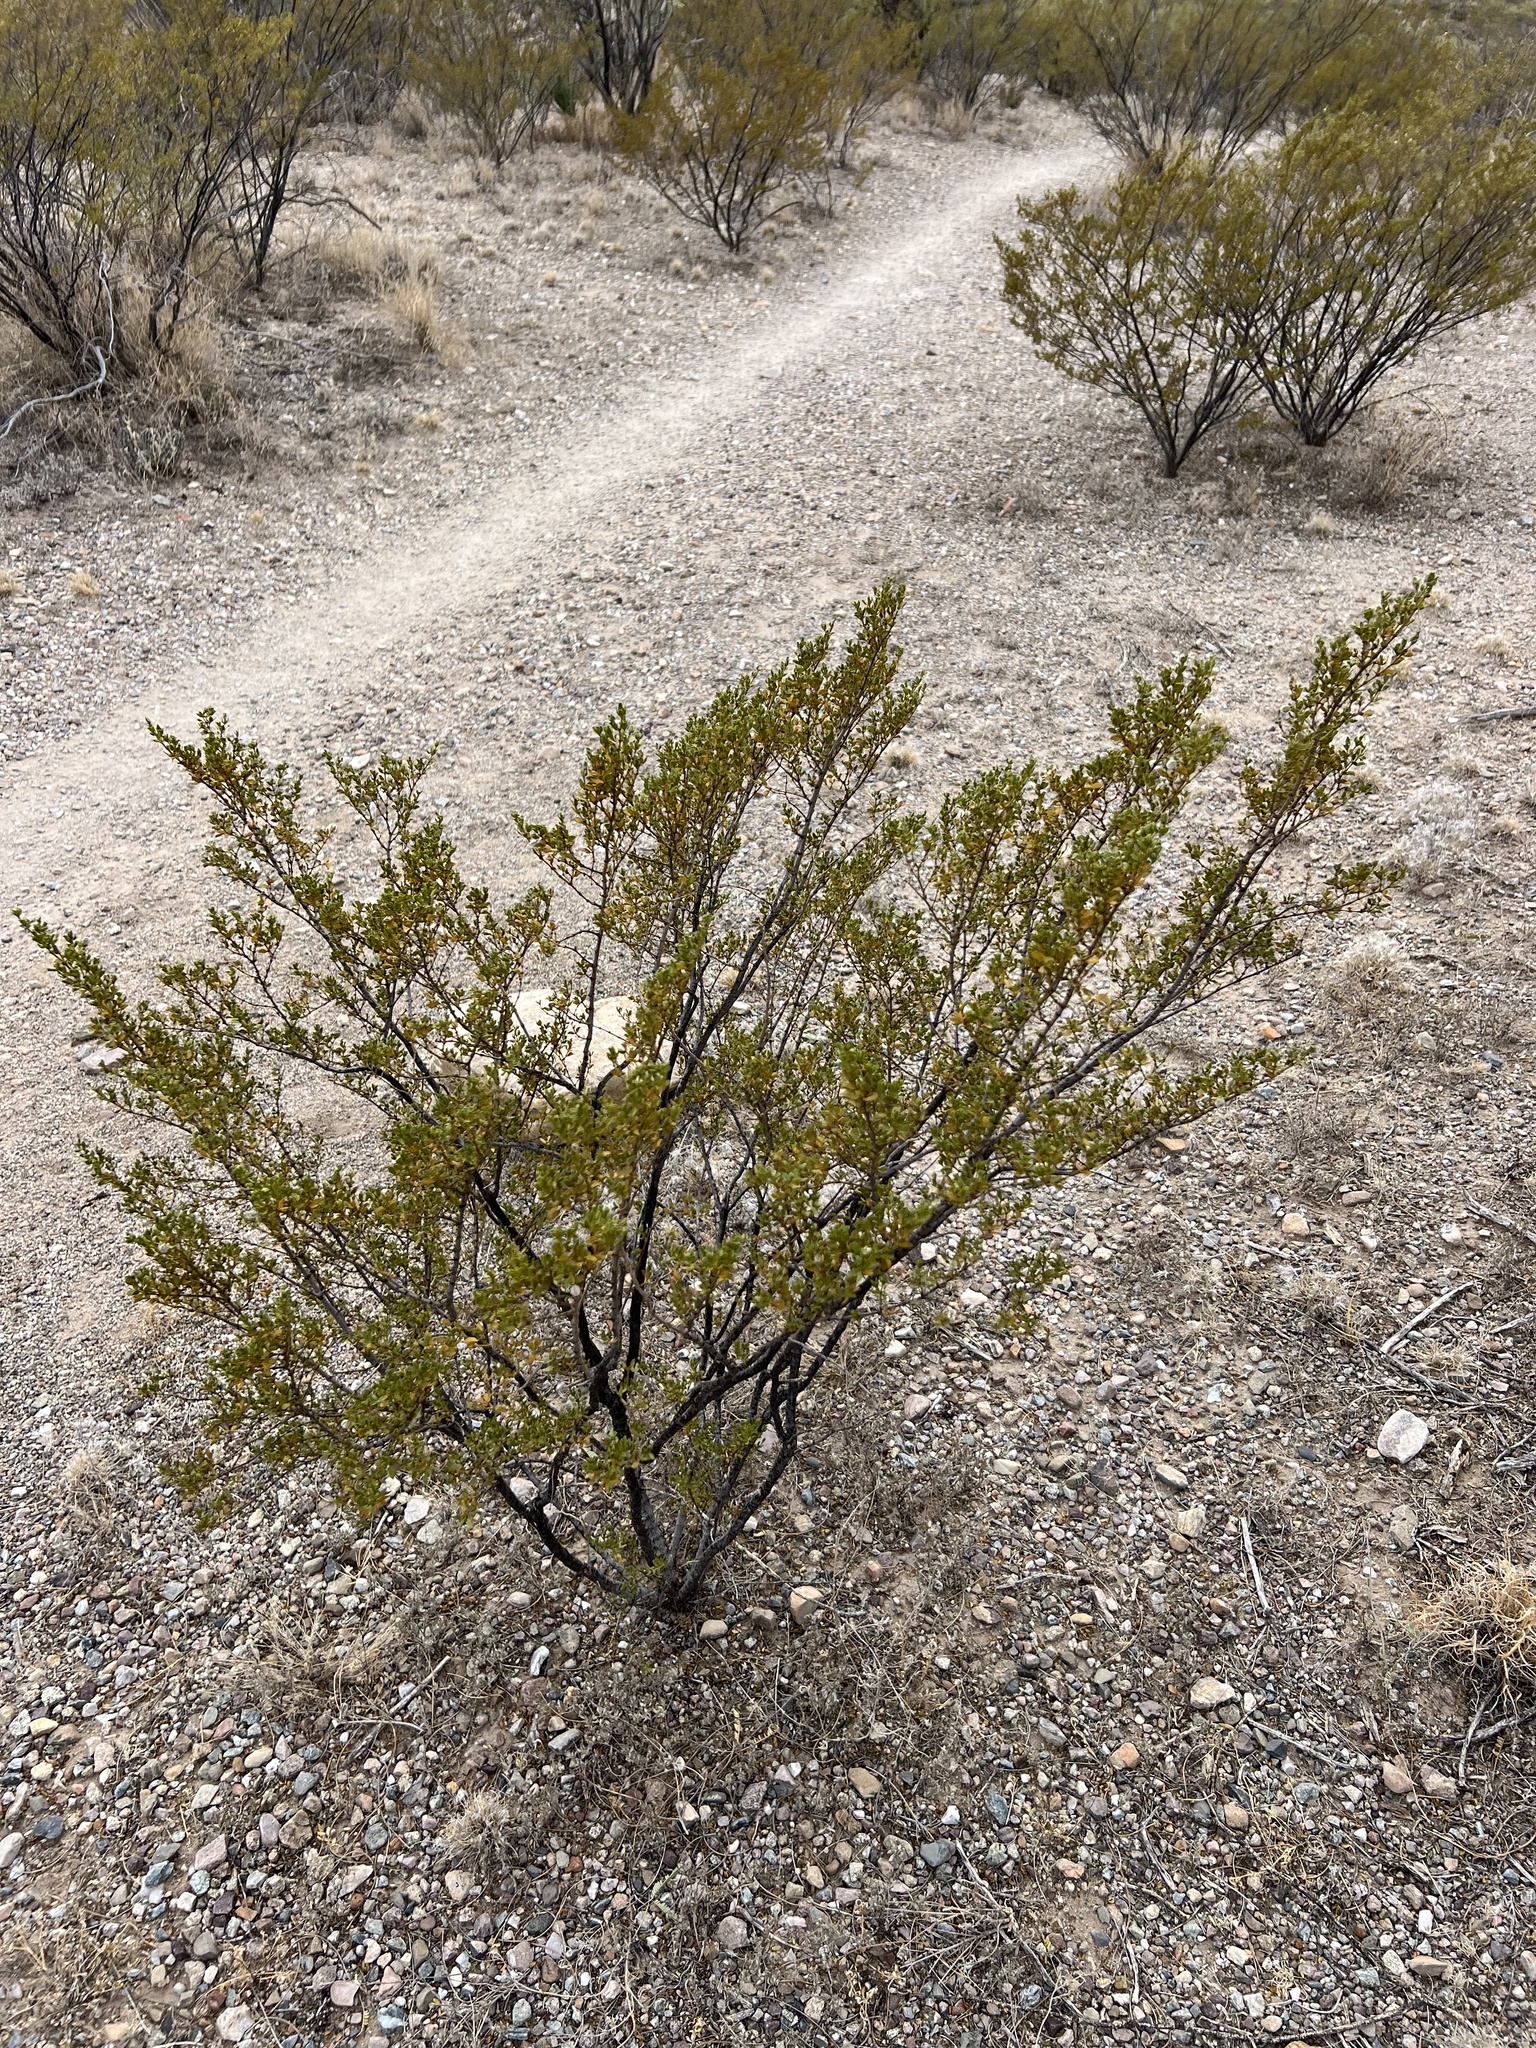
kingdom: Plantae
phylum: Tracheophyta
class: Magnoliopsida
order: Zygophyllales
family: Zygophyllaceae
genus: Larrea
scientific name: Larrea tridentata
